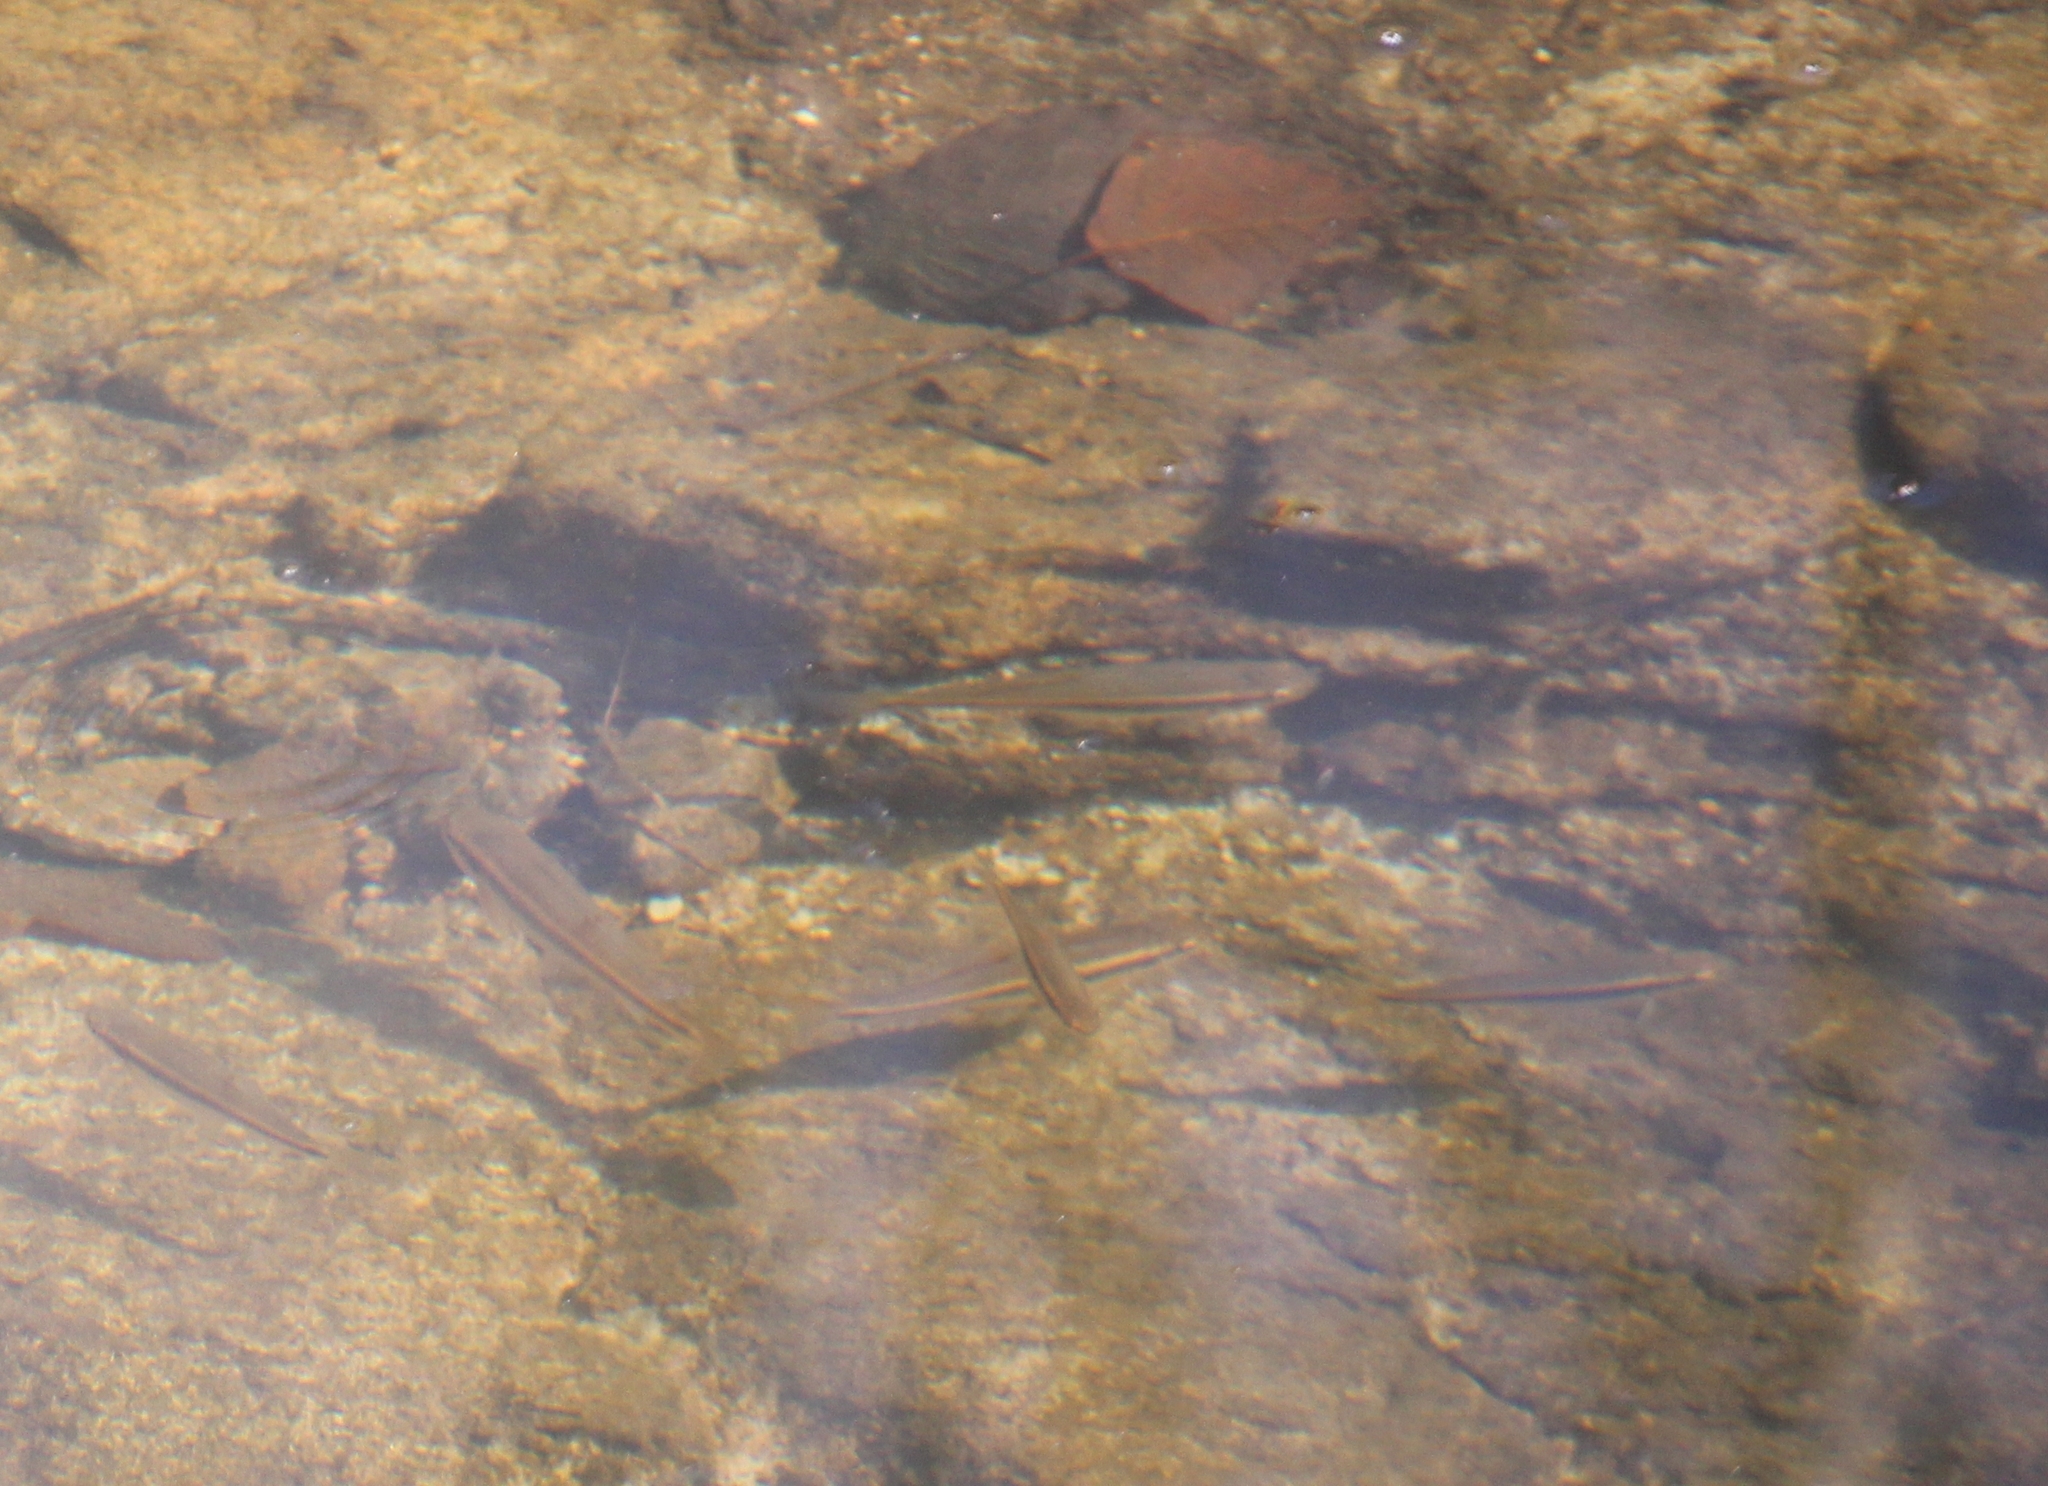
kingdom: Animalia
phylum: Chordata
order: Cypriniformes
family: Cyprinidae
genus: Semotilus
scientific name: Semotilus atromaculatus
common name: Creek chub
